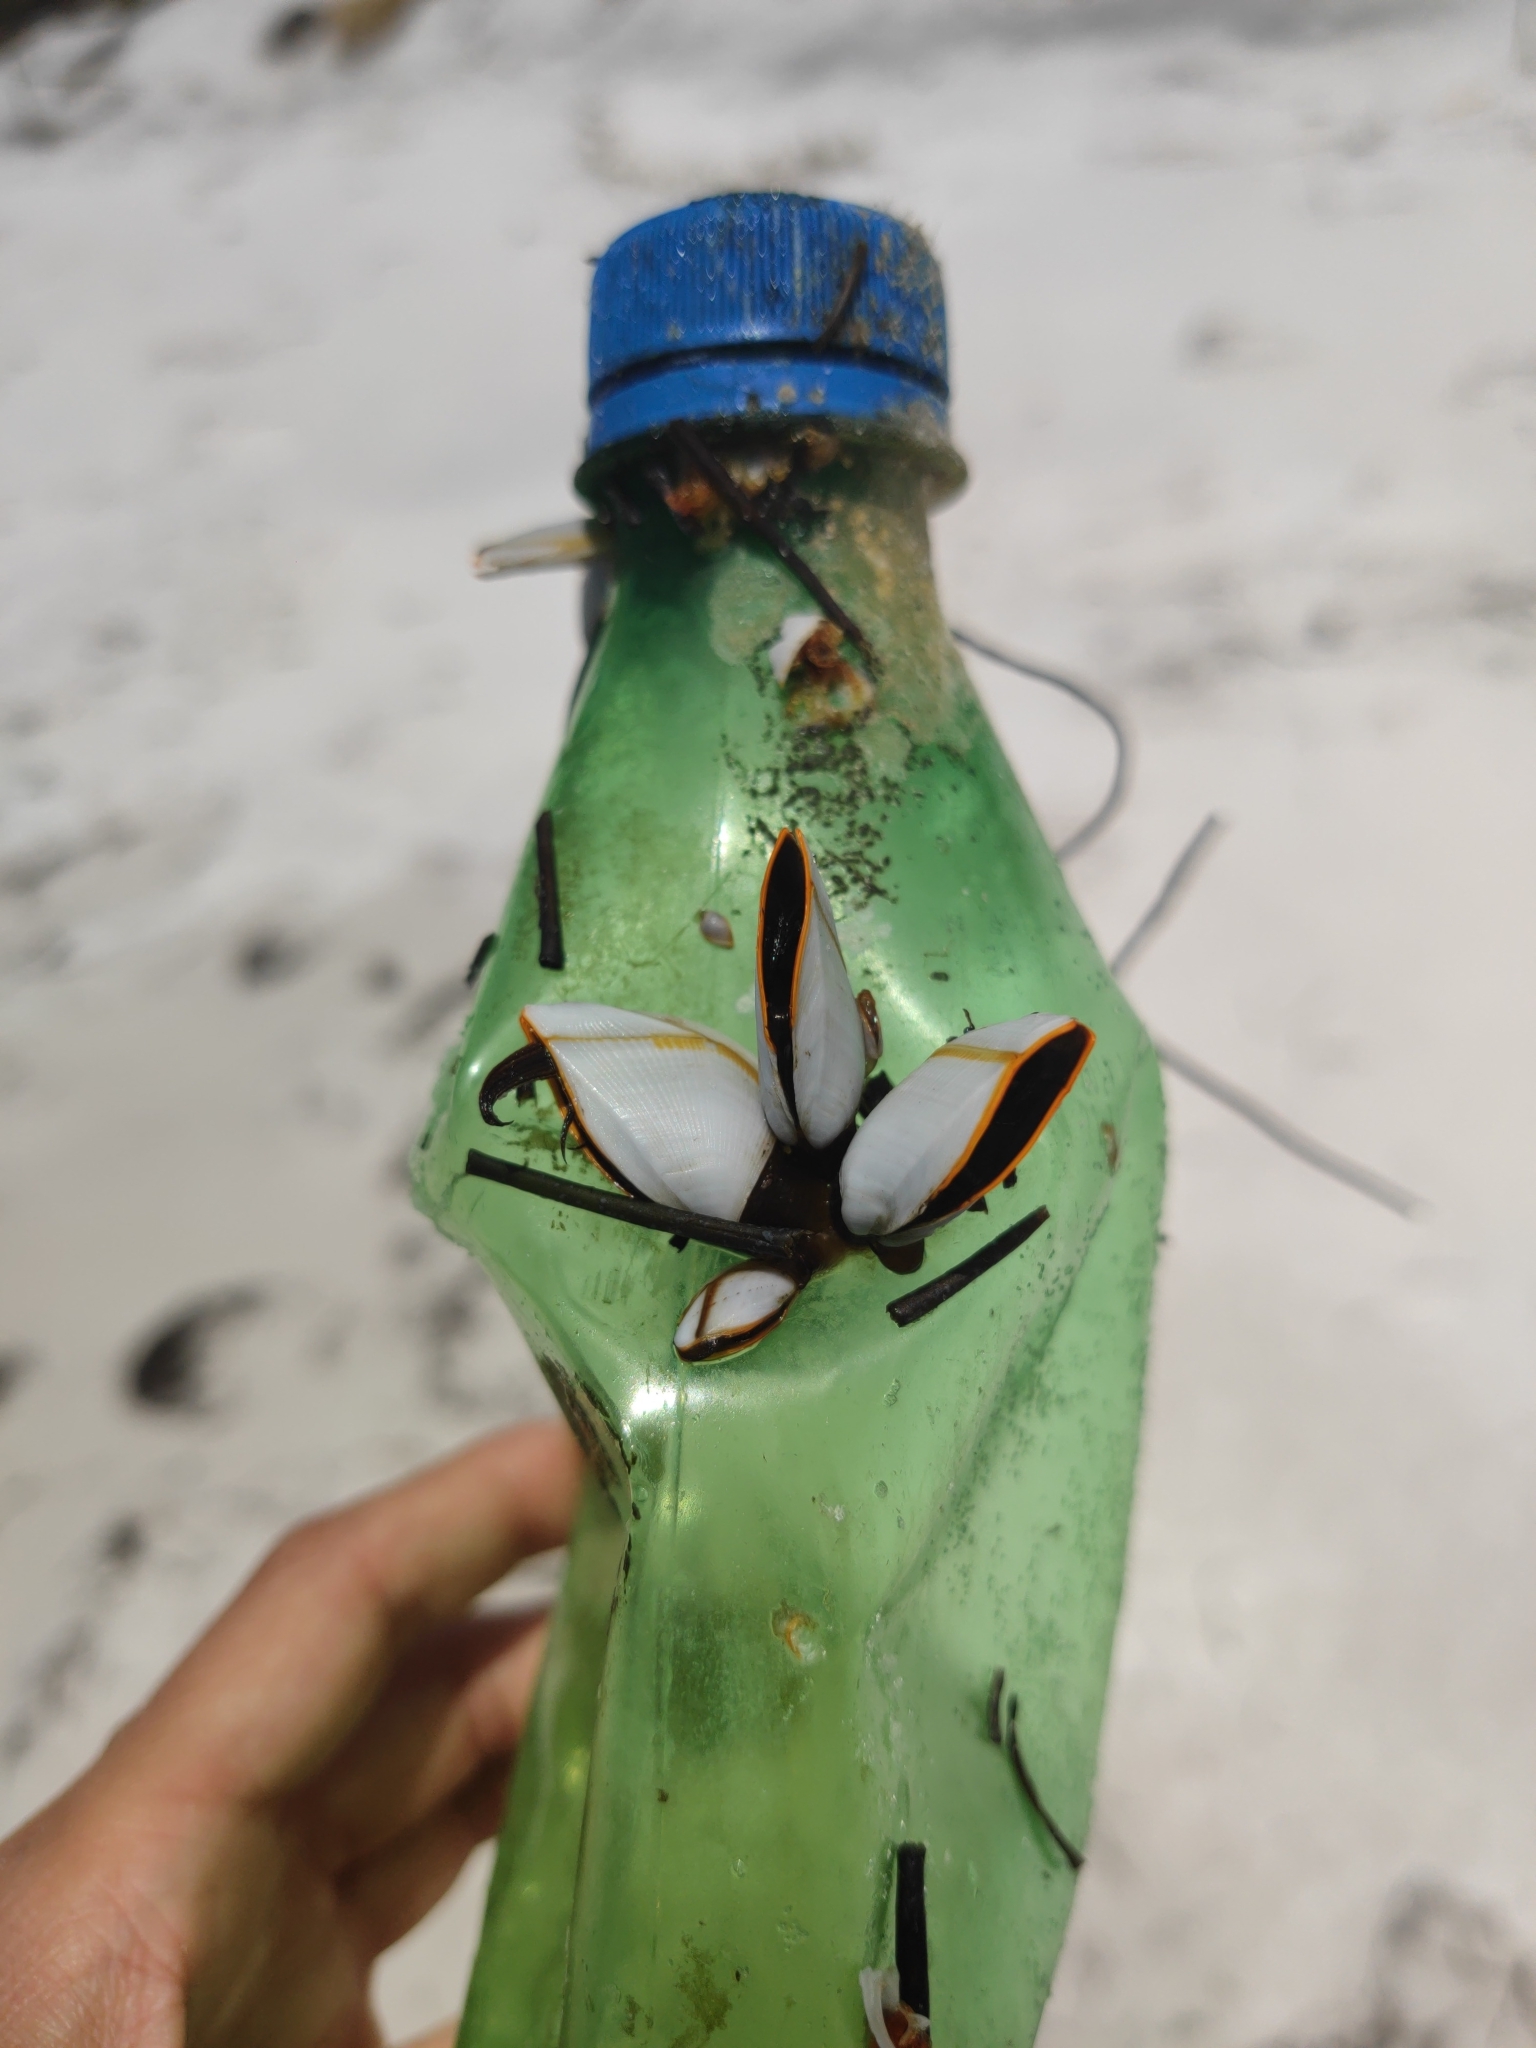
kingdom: Animalia
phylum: Arthropoda
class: Maxillopoda
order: Pedunculata
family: Lepadidae
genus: Lepas
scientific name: Lepas anserifera
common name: Goose barnacle
